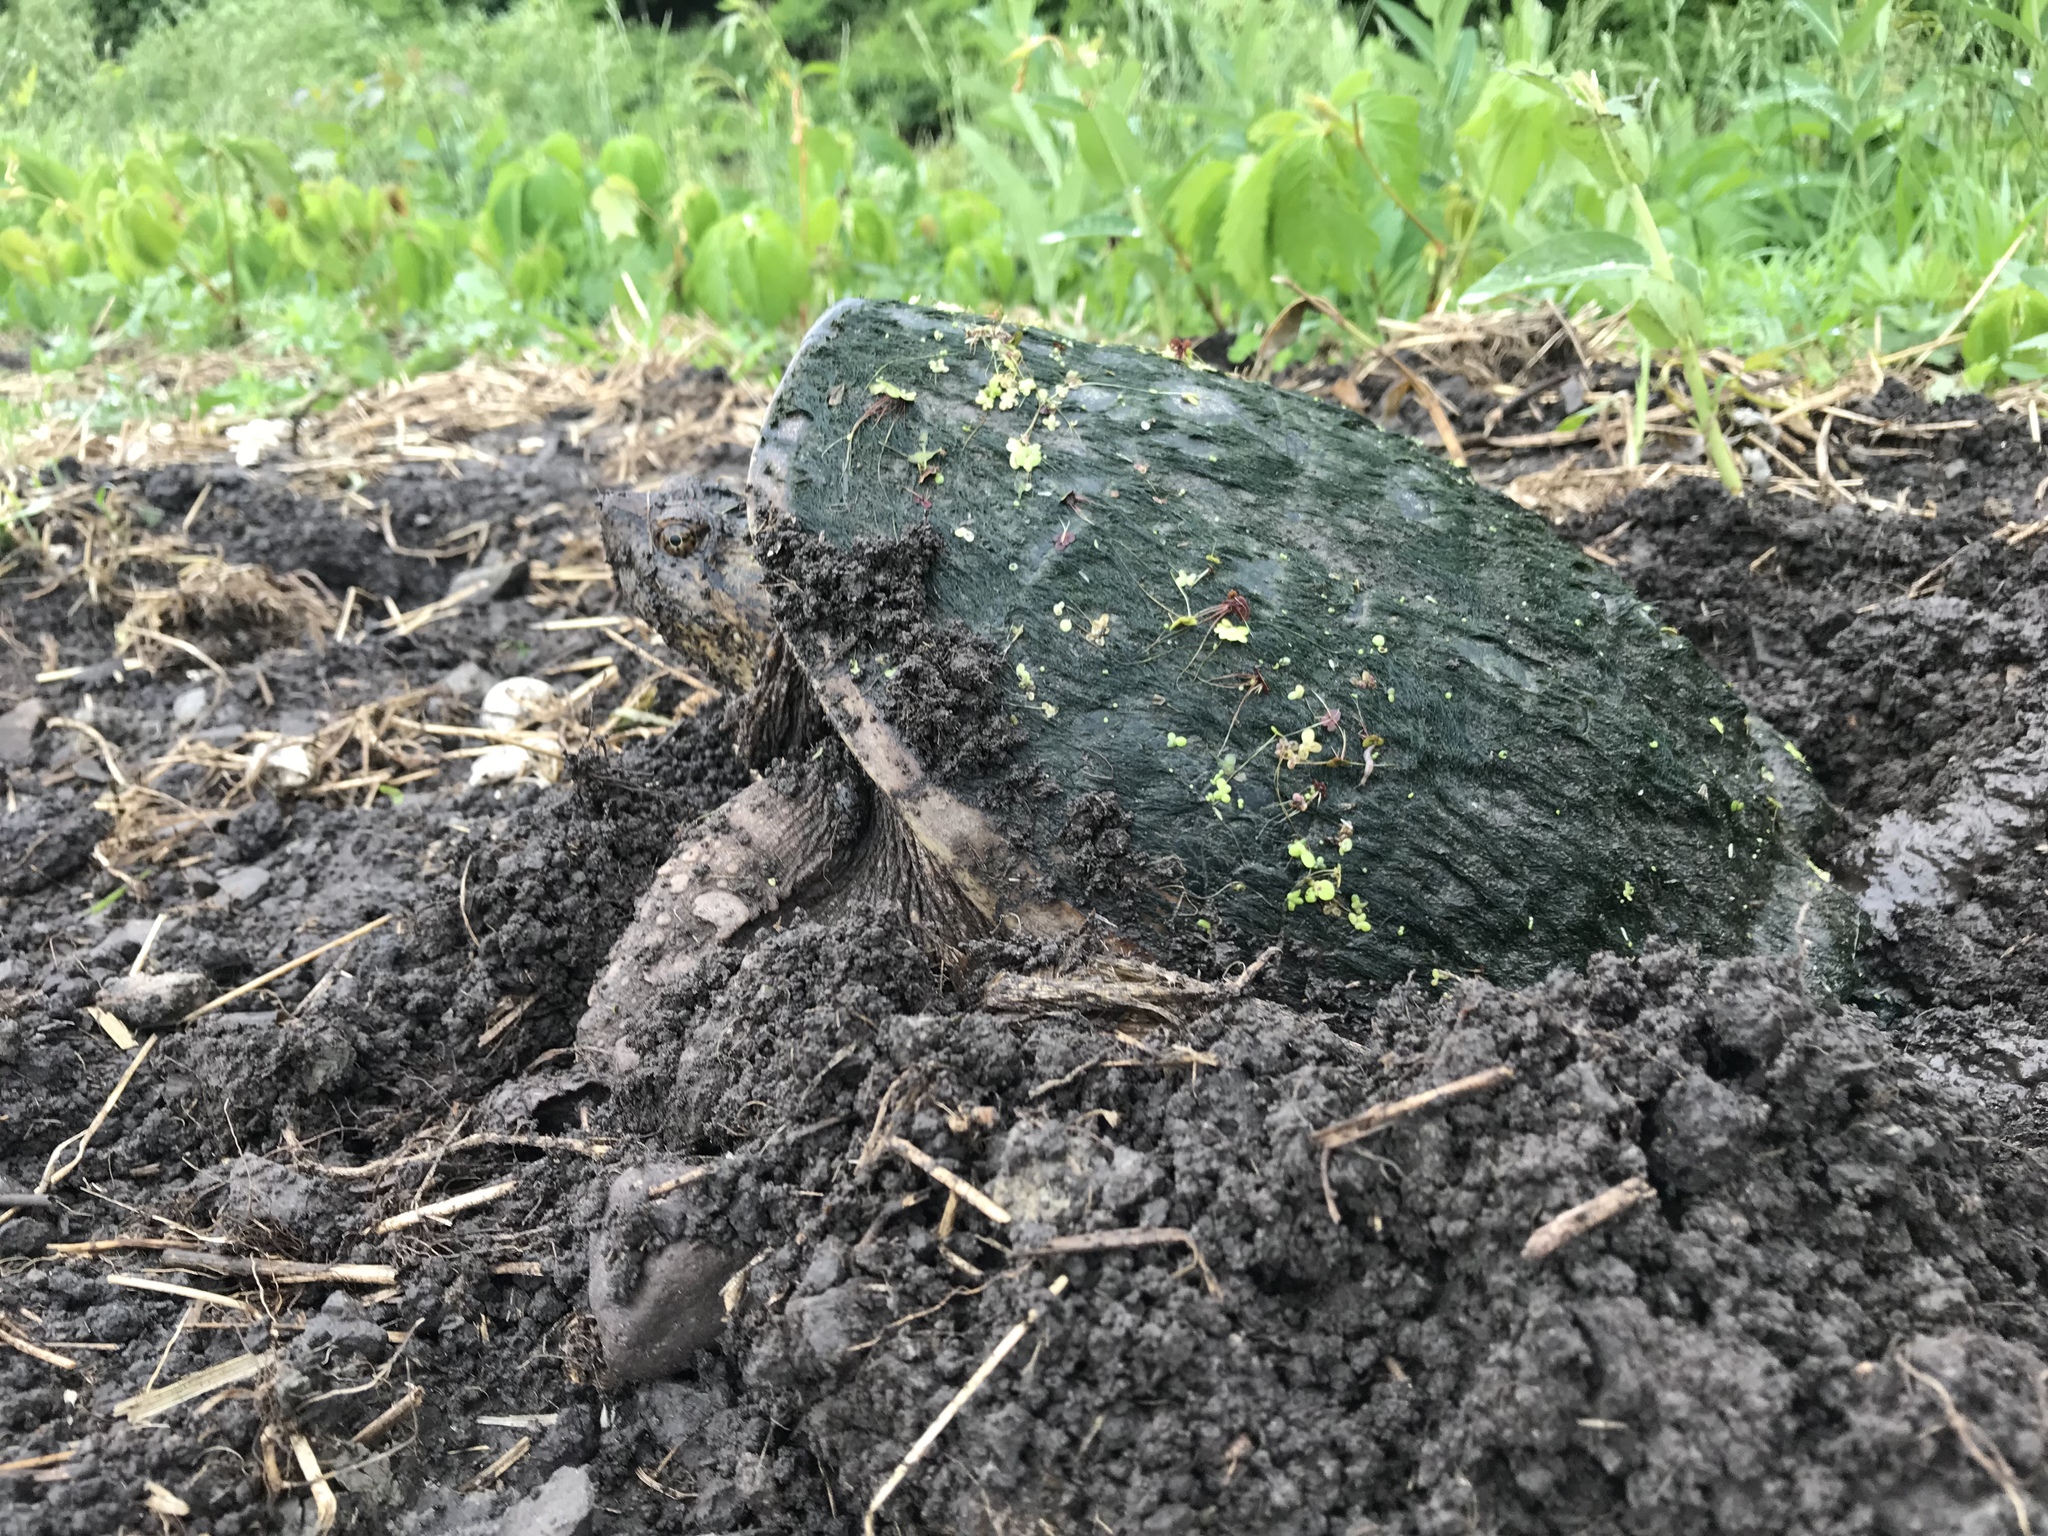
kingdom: Animalia
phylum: Chordata
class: Testudines
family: Chelydridae
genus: Chelydra
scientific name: Chelydra serpentina
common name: Common snapping turtle
